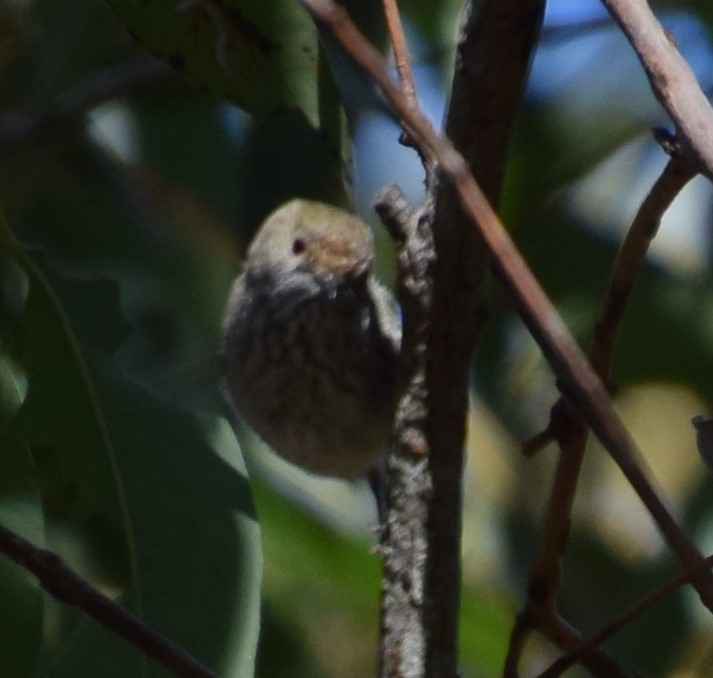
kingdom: Animalia
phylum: Chordata
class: Aves
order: Passeriformes
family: Acanthizidae
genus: Acanthiza
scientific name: Acanthiza pusilla
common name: Brown thornbill
